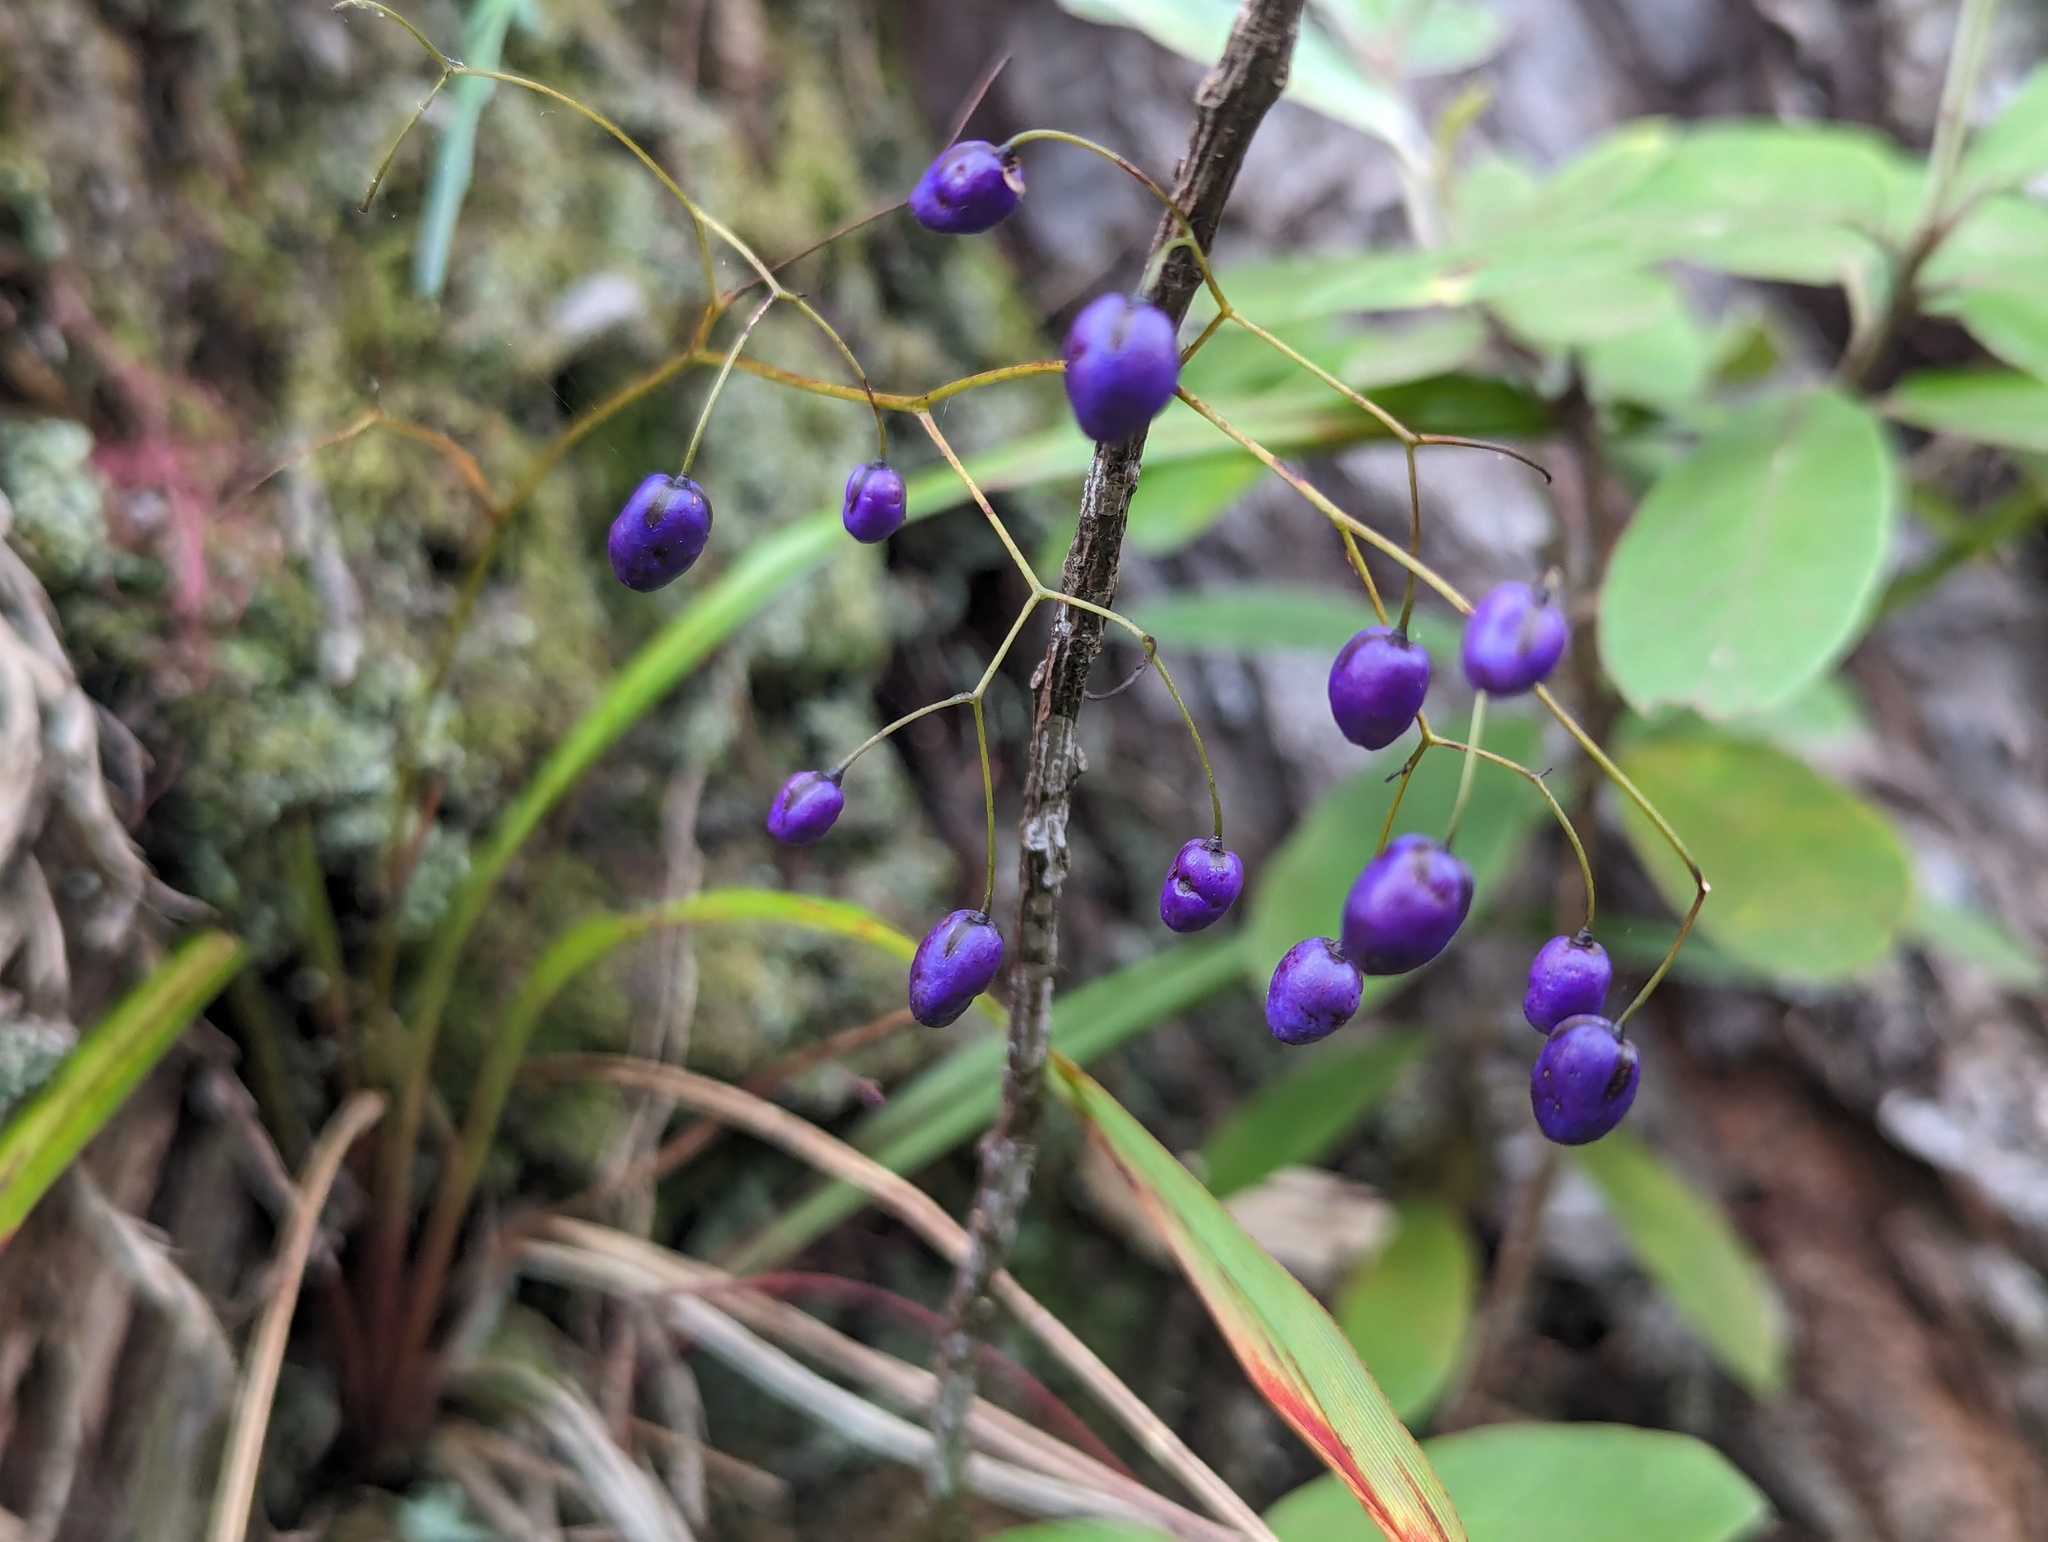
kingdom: Plantae
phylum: Tracheophyta
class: Liliopsida
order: Asparagales
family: Asphodelaceae
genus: Dianella
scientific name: Dianella nigra
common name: New zealand-blueberry
